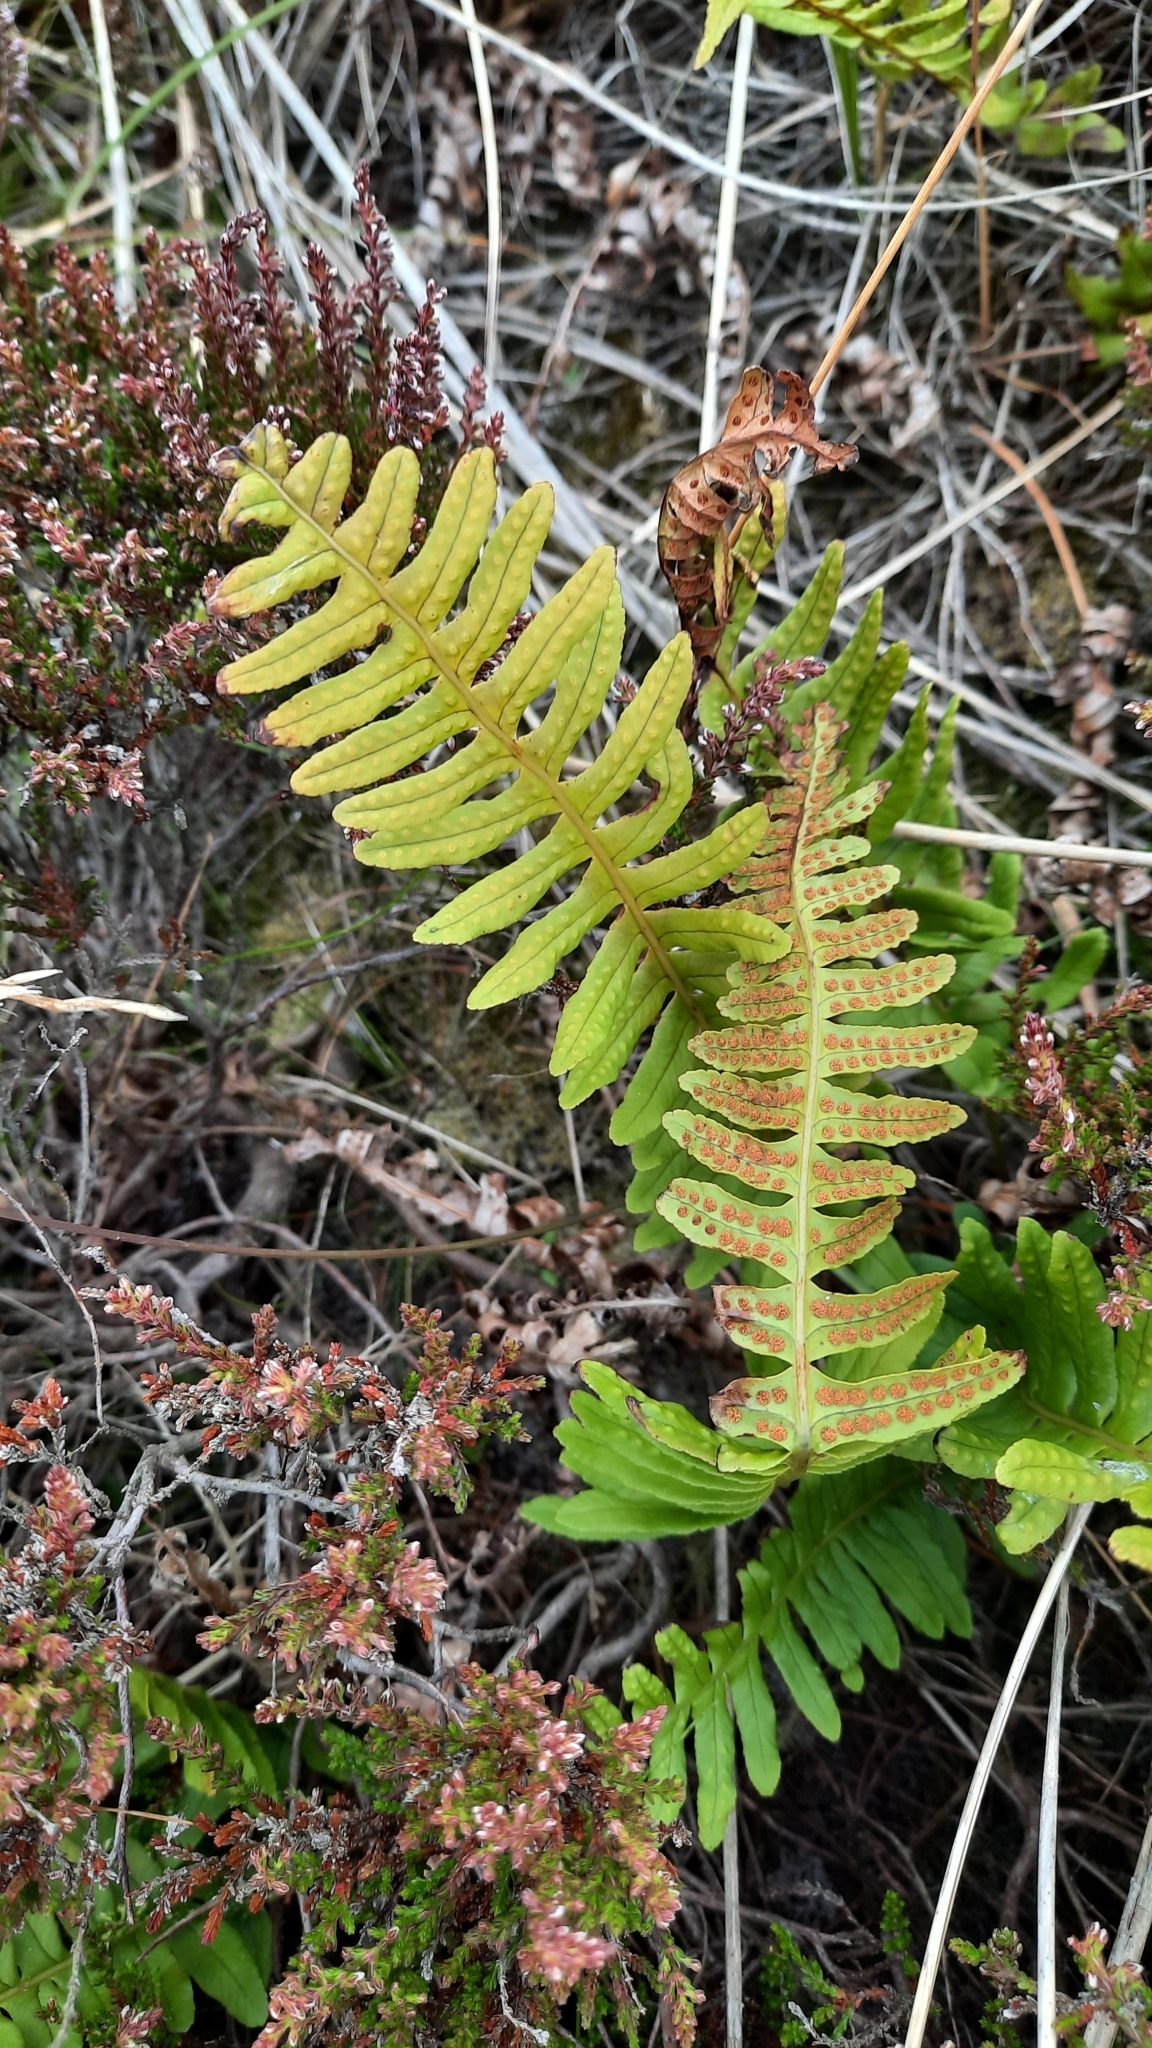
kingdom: Plantae
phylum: Tracheophyta
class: Polypodiopsida
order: Polypodiales
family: Polypodiaceae
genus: Polypodium
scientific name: Polypodium vulgare
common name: Common polypody
